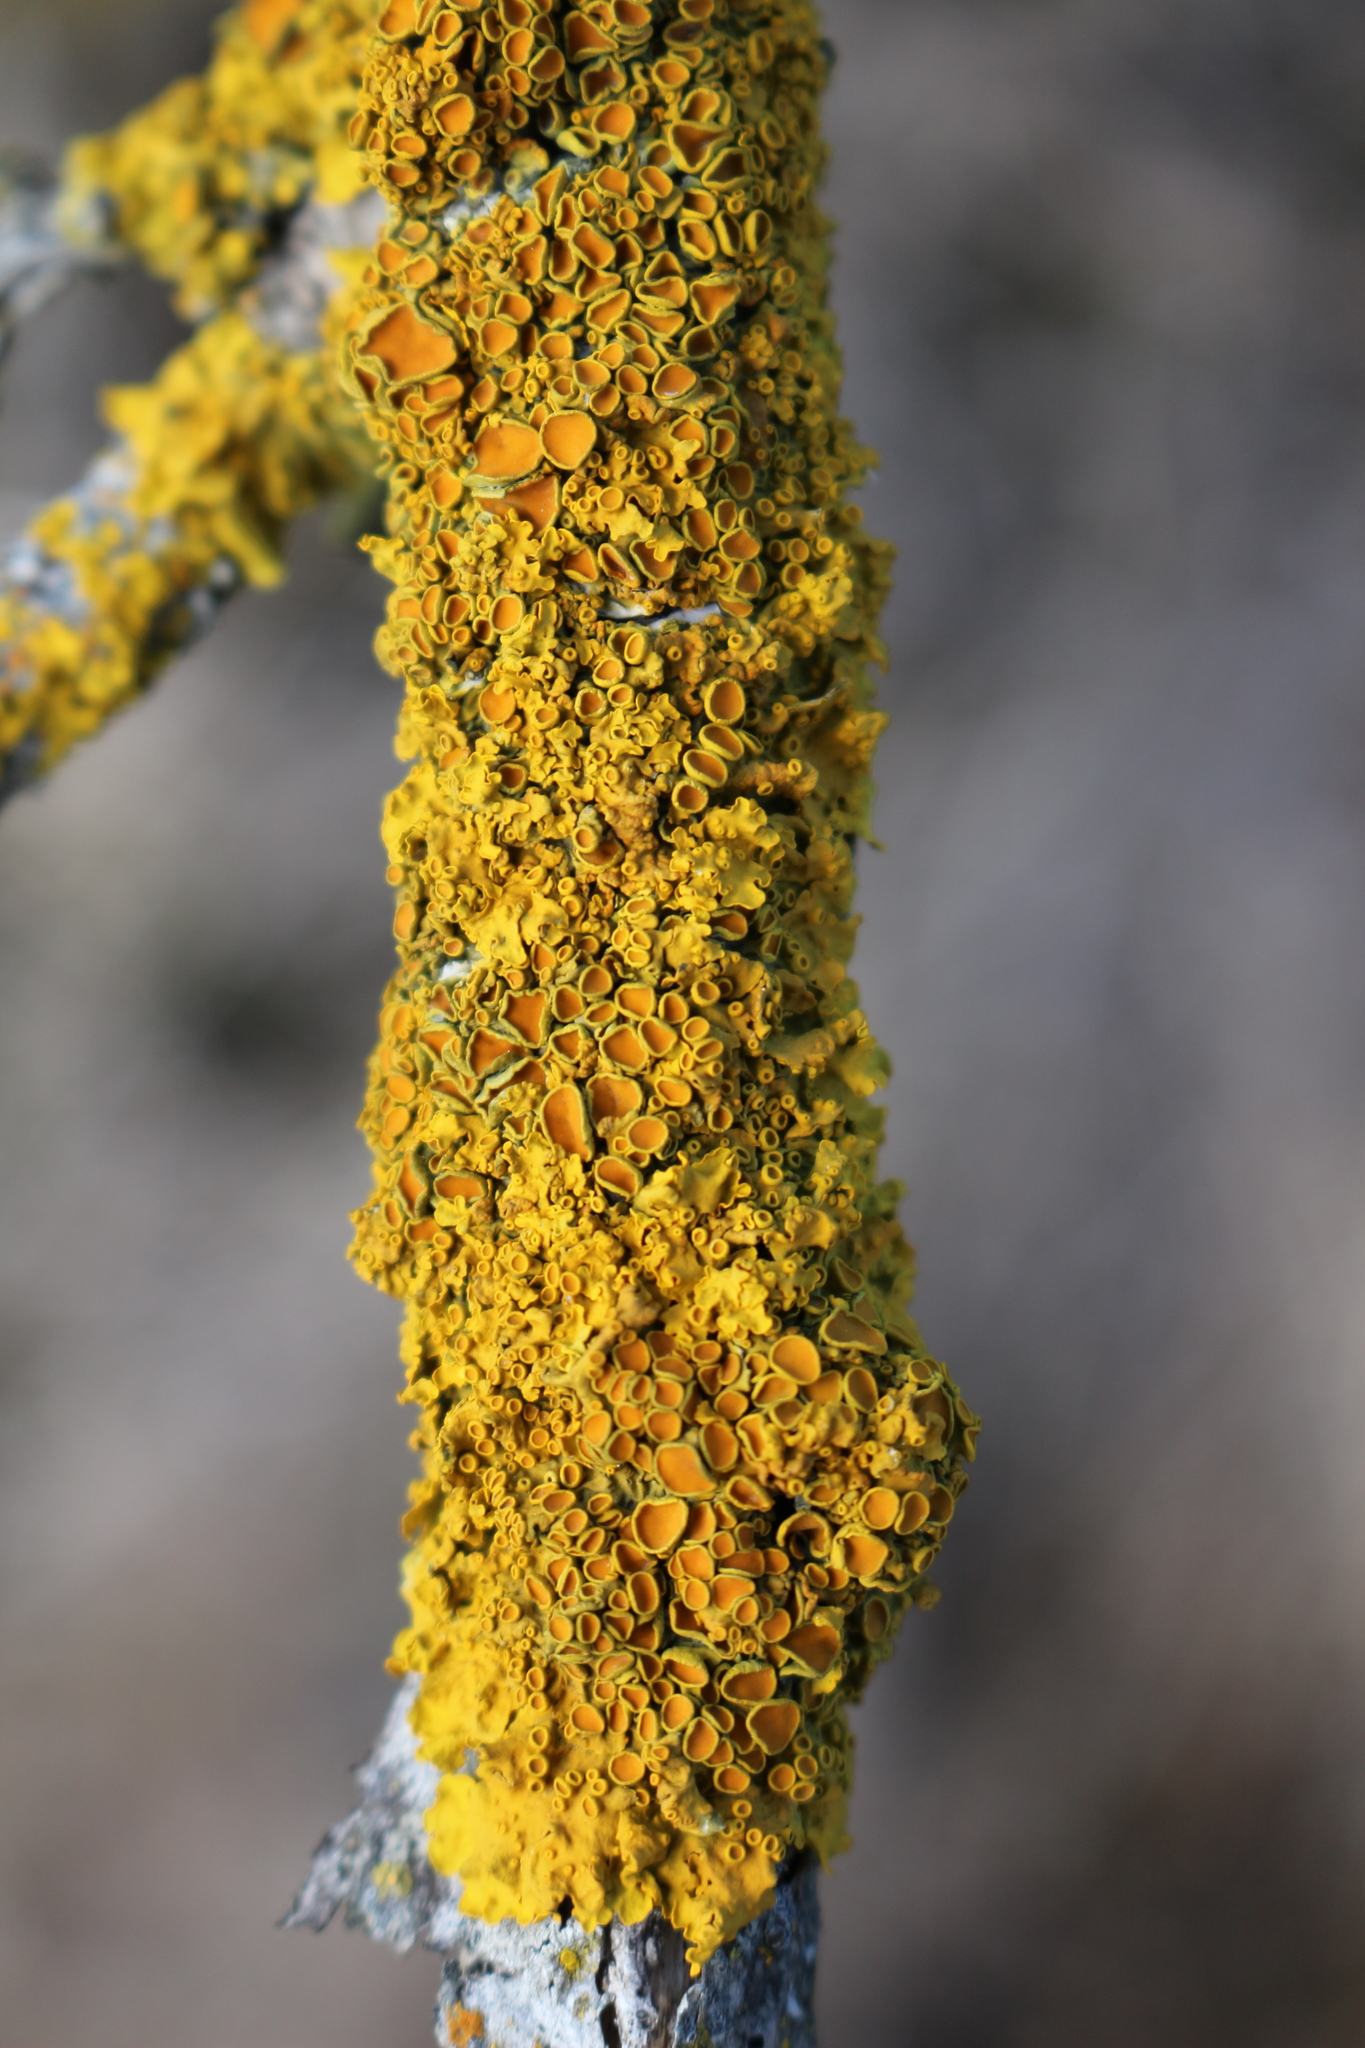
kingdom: Fungi
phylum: Ascomycota
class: Lecanoromycetes
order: Teloschistales
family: Teloschistaceae
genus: Xanthoria
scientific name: Xanthoria parietina
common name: Common orange lichen
